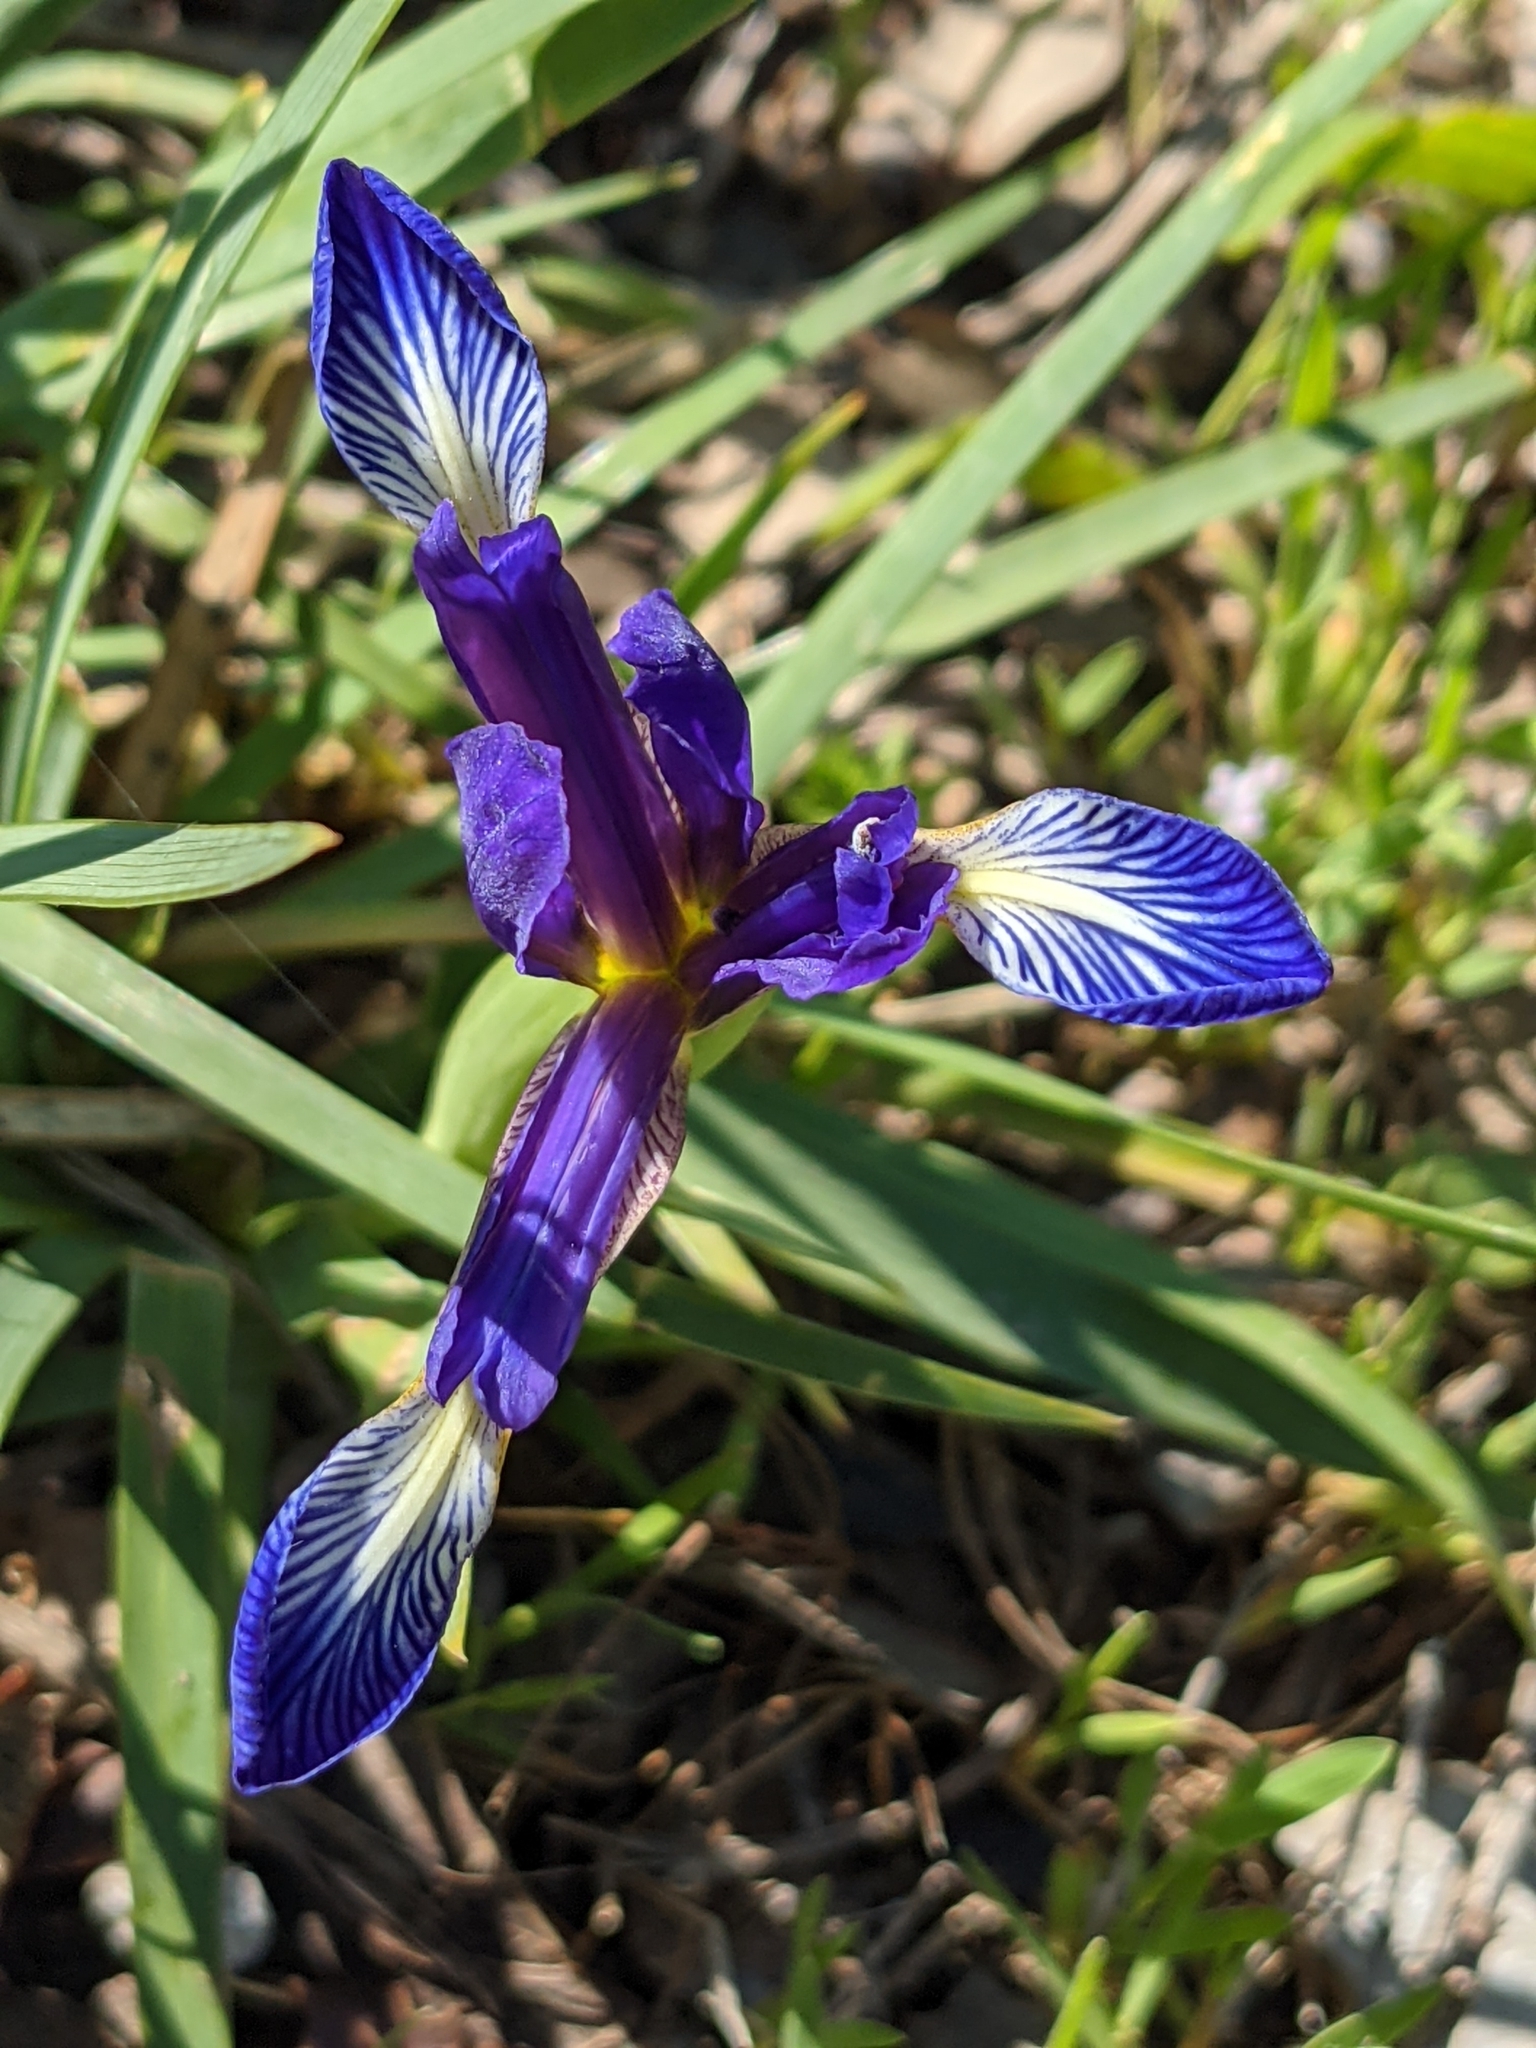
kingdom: Plantae
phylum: Tracheophyta
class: Liliopsida
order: Asparagales
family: Iridaceae
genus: Iris
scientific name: Iris reichenbachiana
